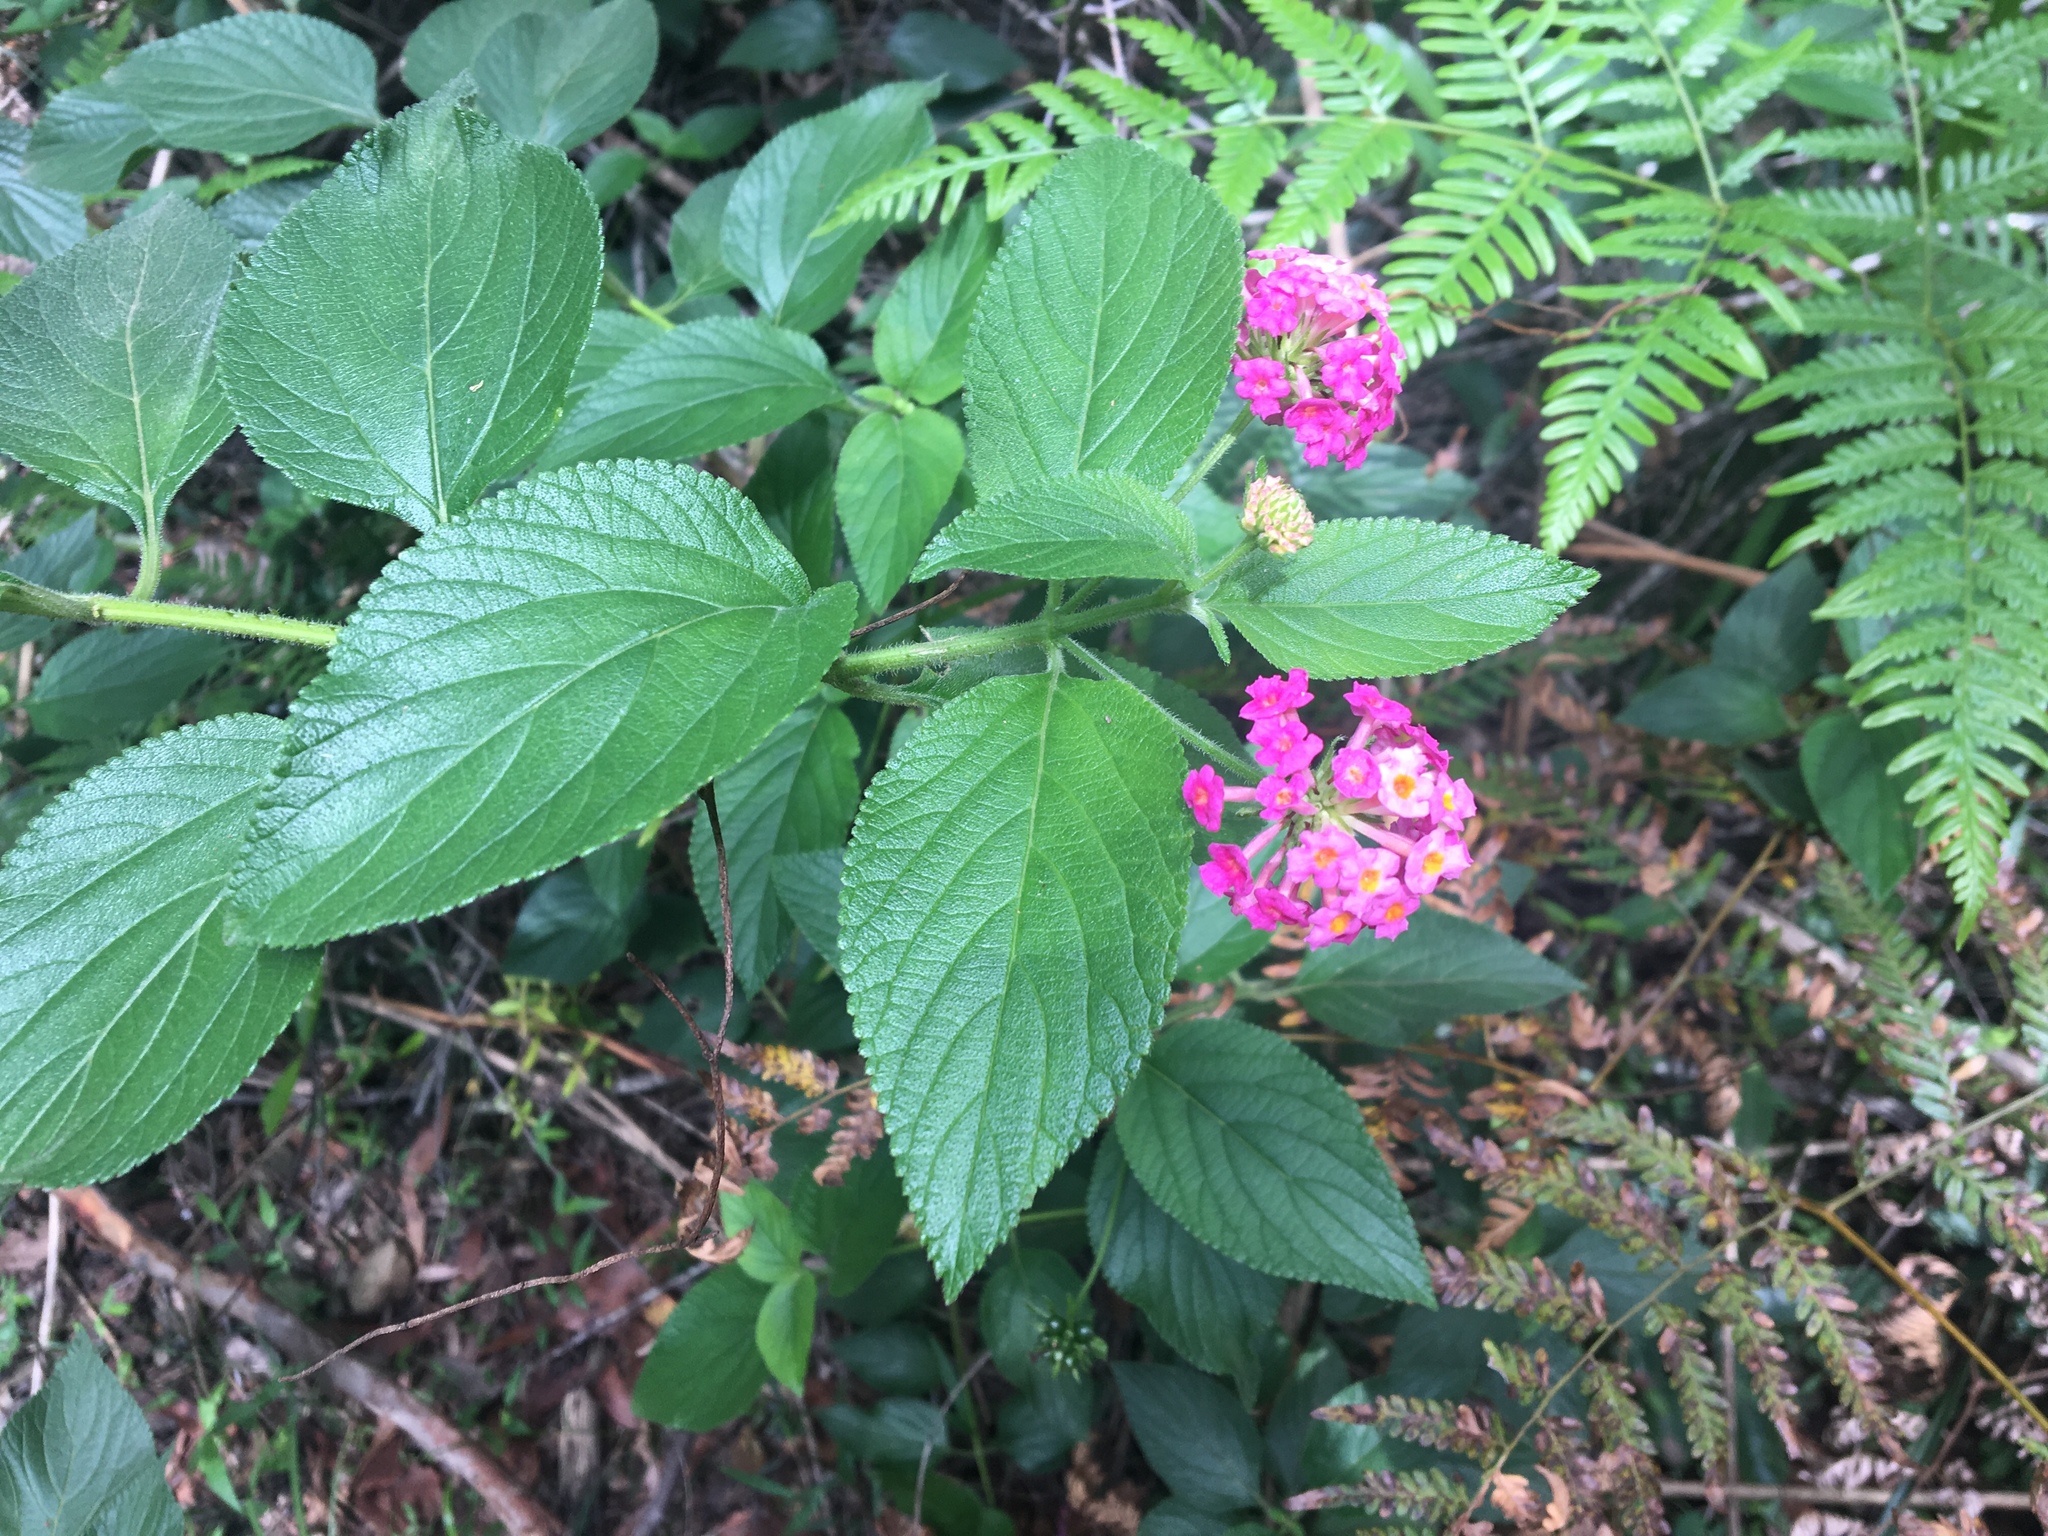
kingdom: Plantae
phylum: Tracheophyta
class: Magnoliopsida
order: Lamiales
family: Verbenaceae
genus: Lantana
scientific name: Lantana camara
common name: Lantana
